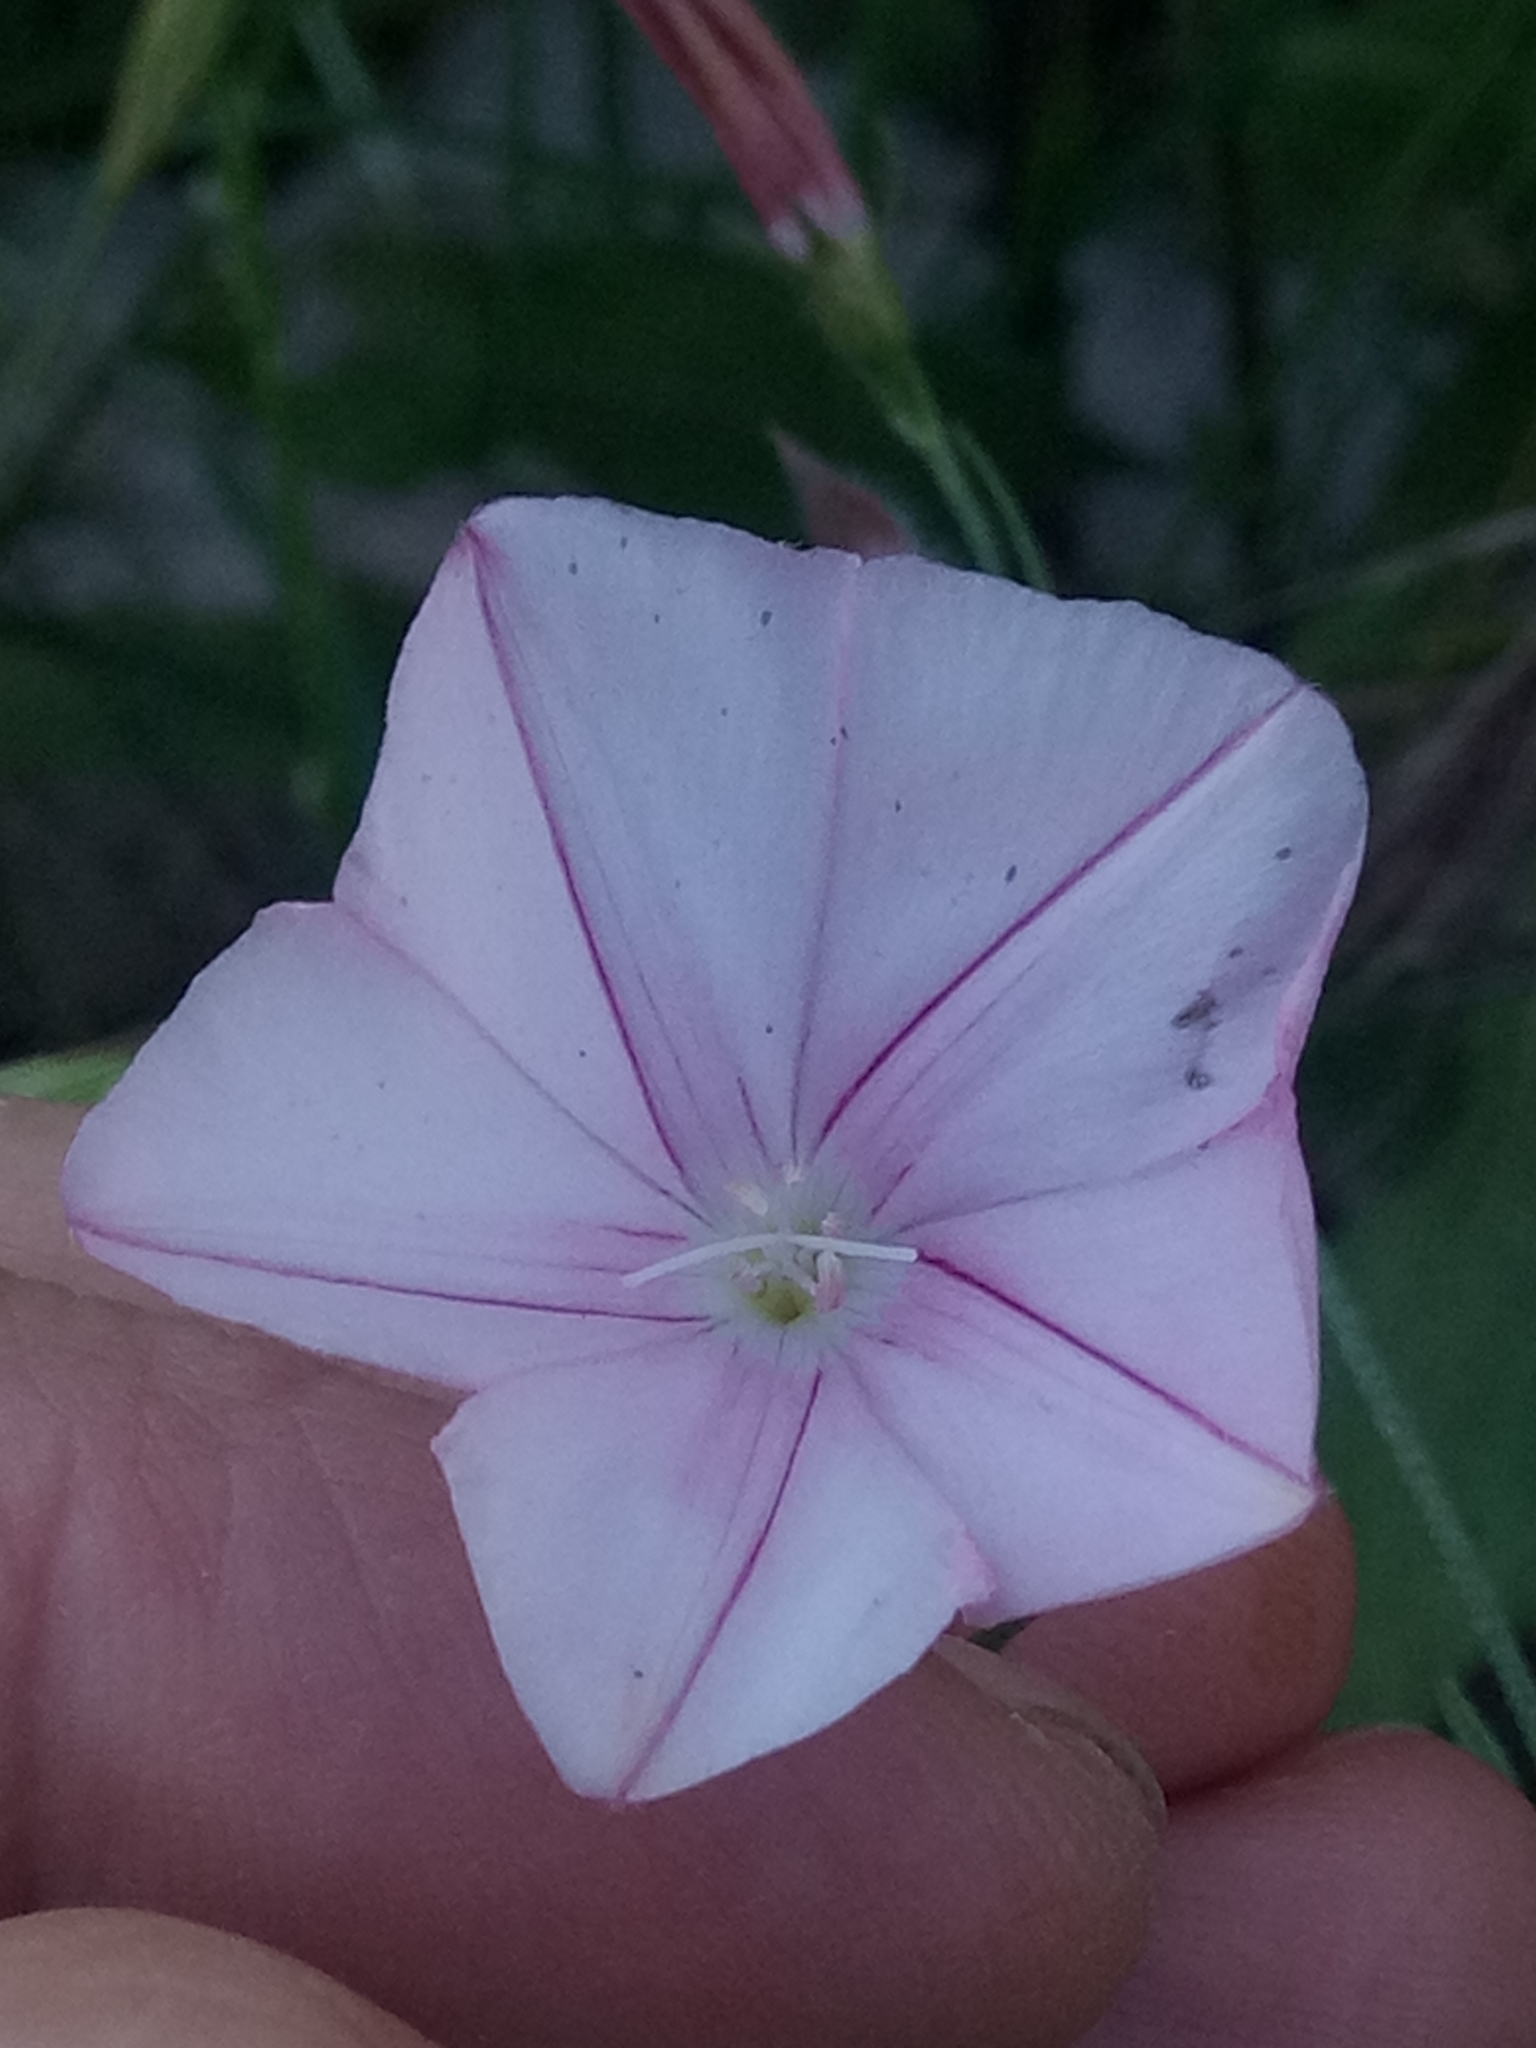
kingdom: Plantae
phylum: Tracheophyta
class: Magnoliopsida
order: Solanales
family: Convolvulaceae
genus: Convolvulus
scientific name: Convolvulus cantabrica
